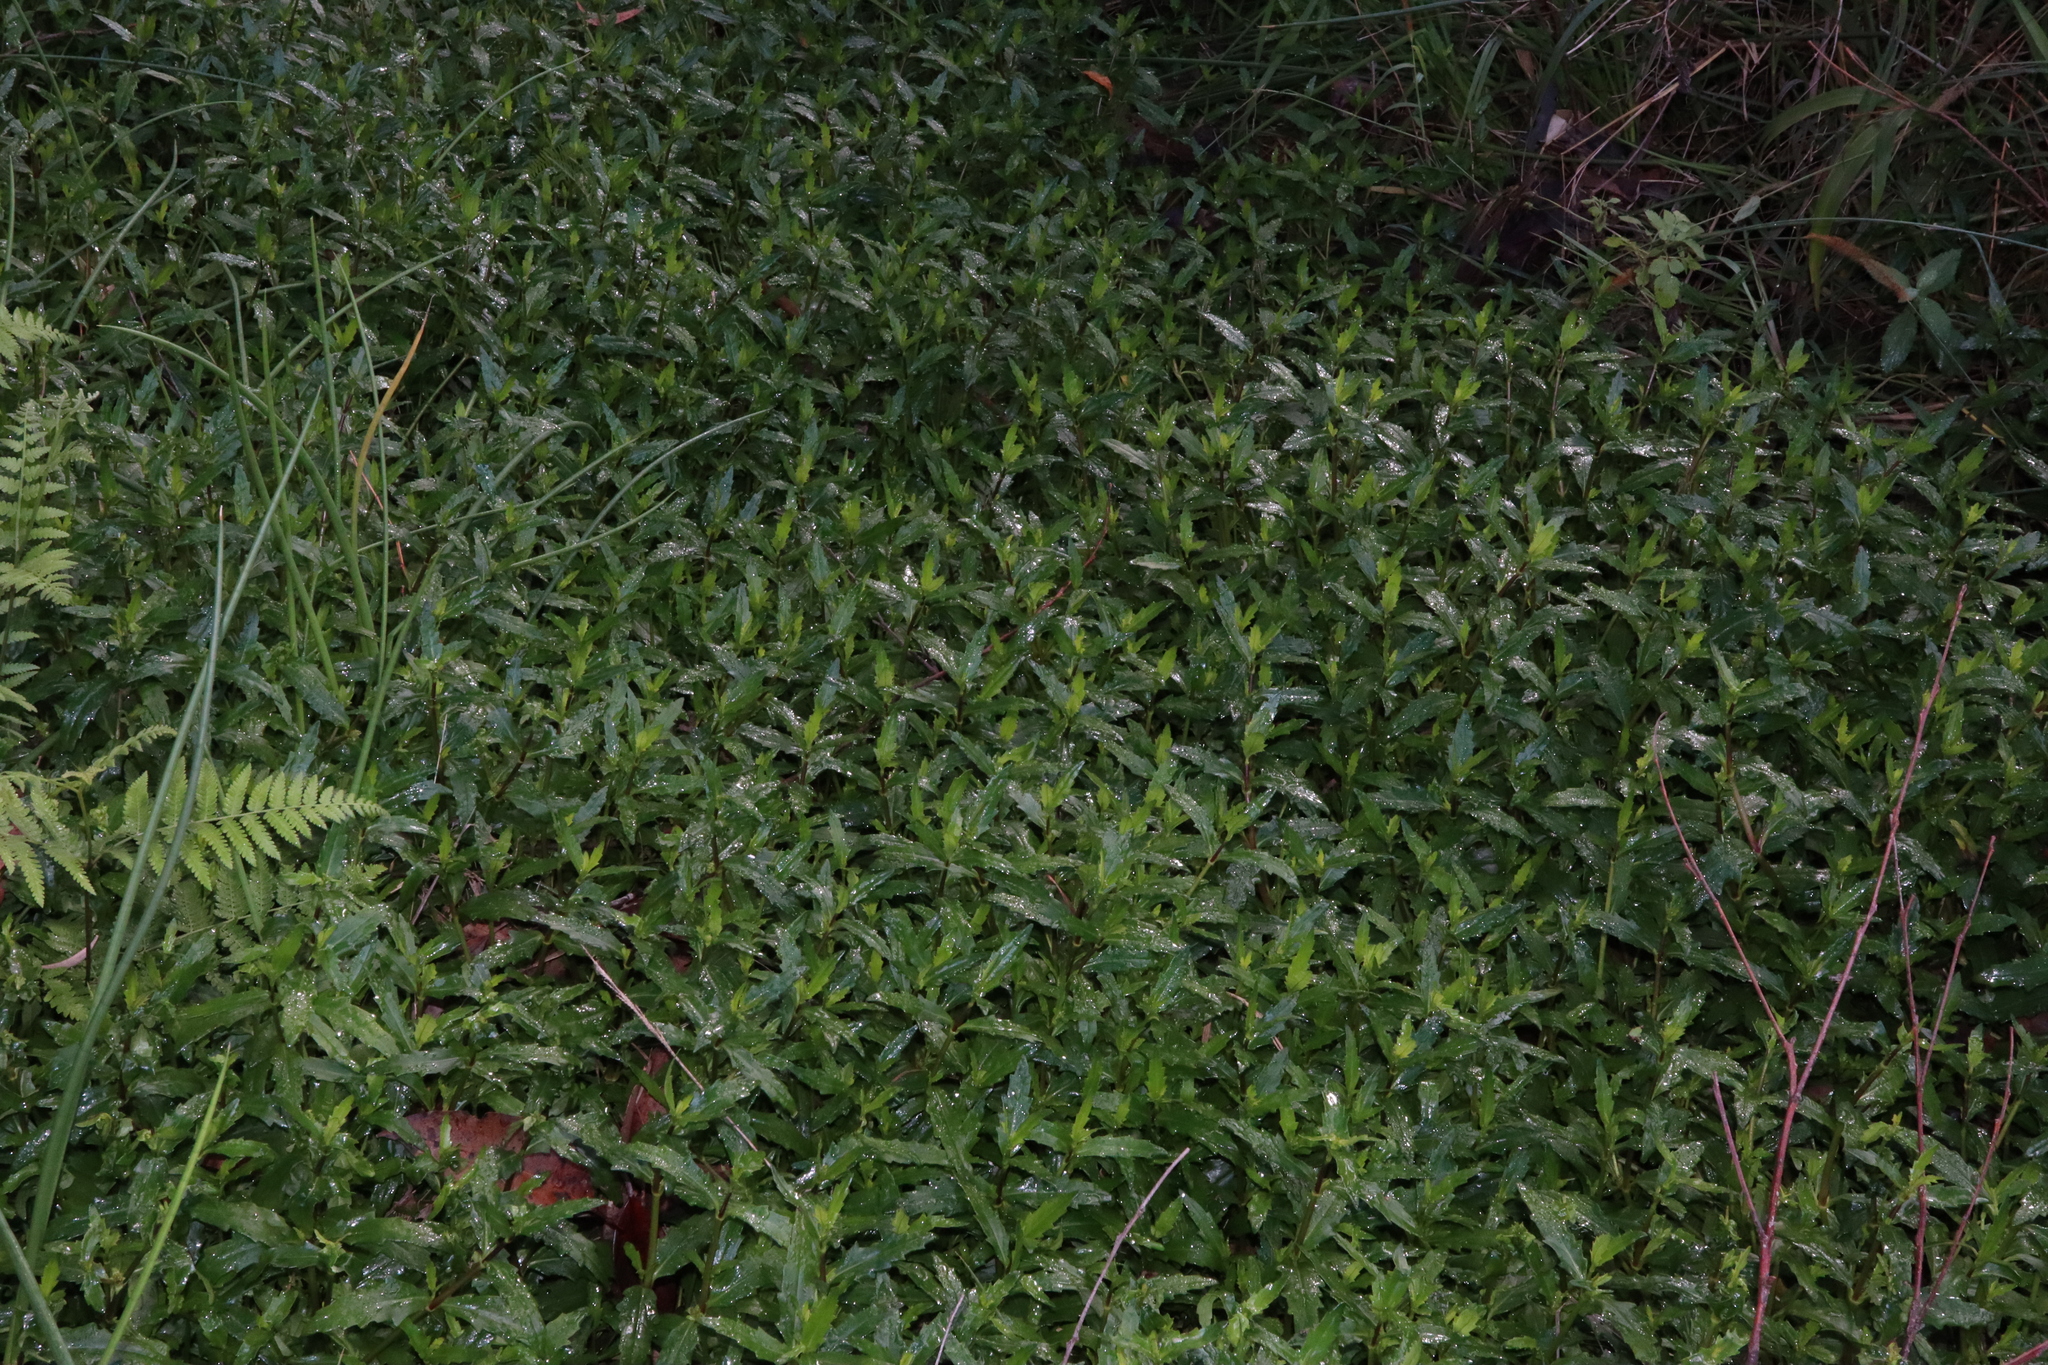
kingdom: Plantae
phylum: Tracheophyta
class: Magnoliopsida
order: Asterales
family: Asteraceae
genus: Enydra
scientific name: Enydra fluctuans
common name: Buffalo spinach
